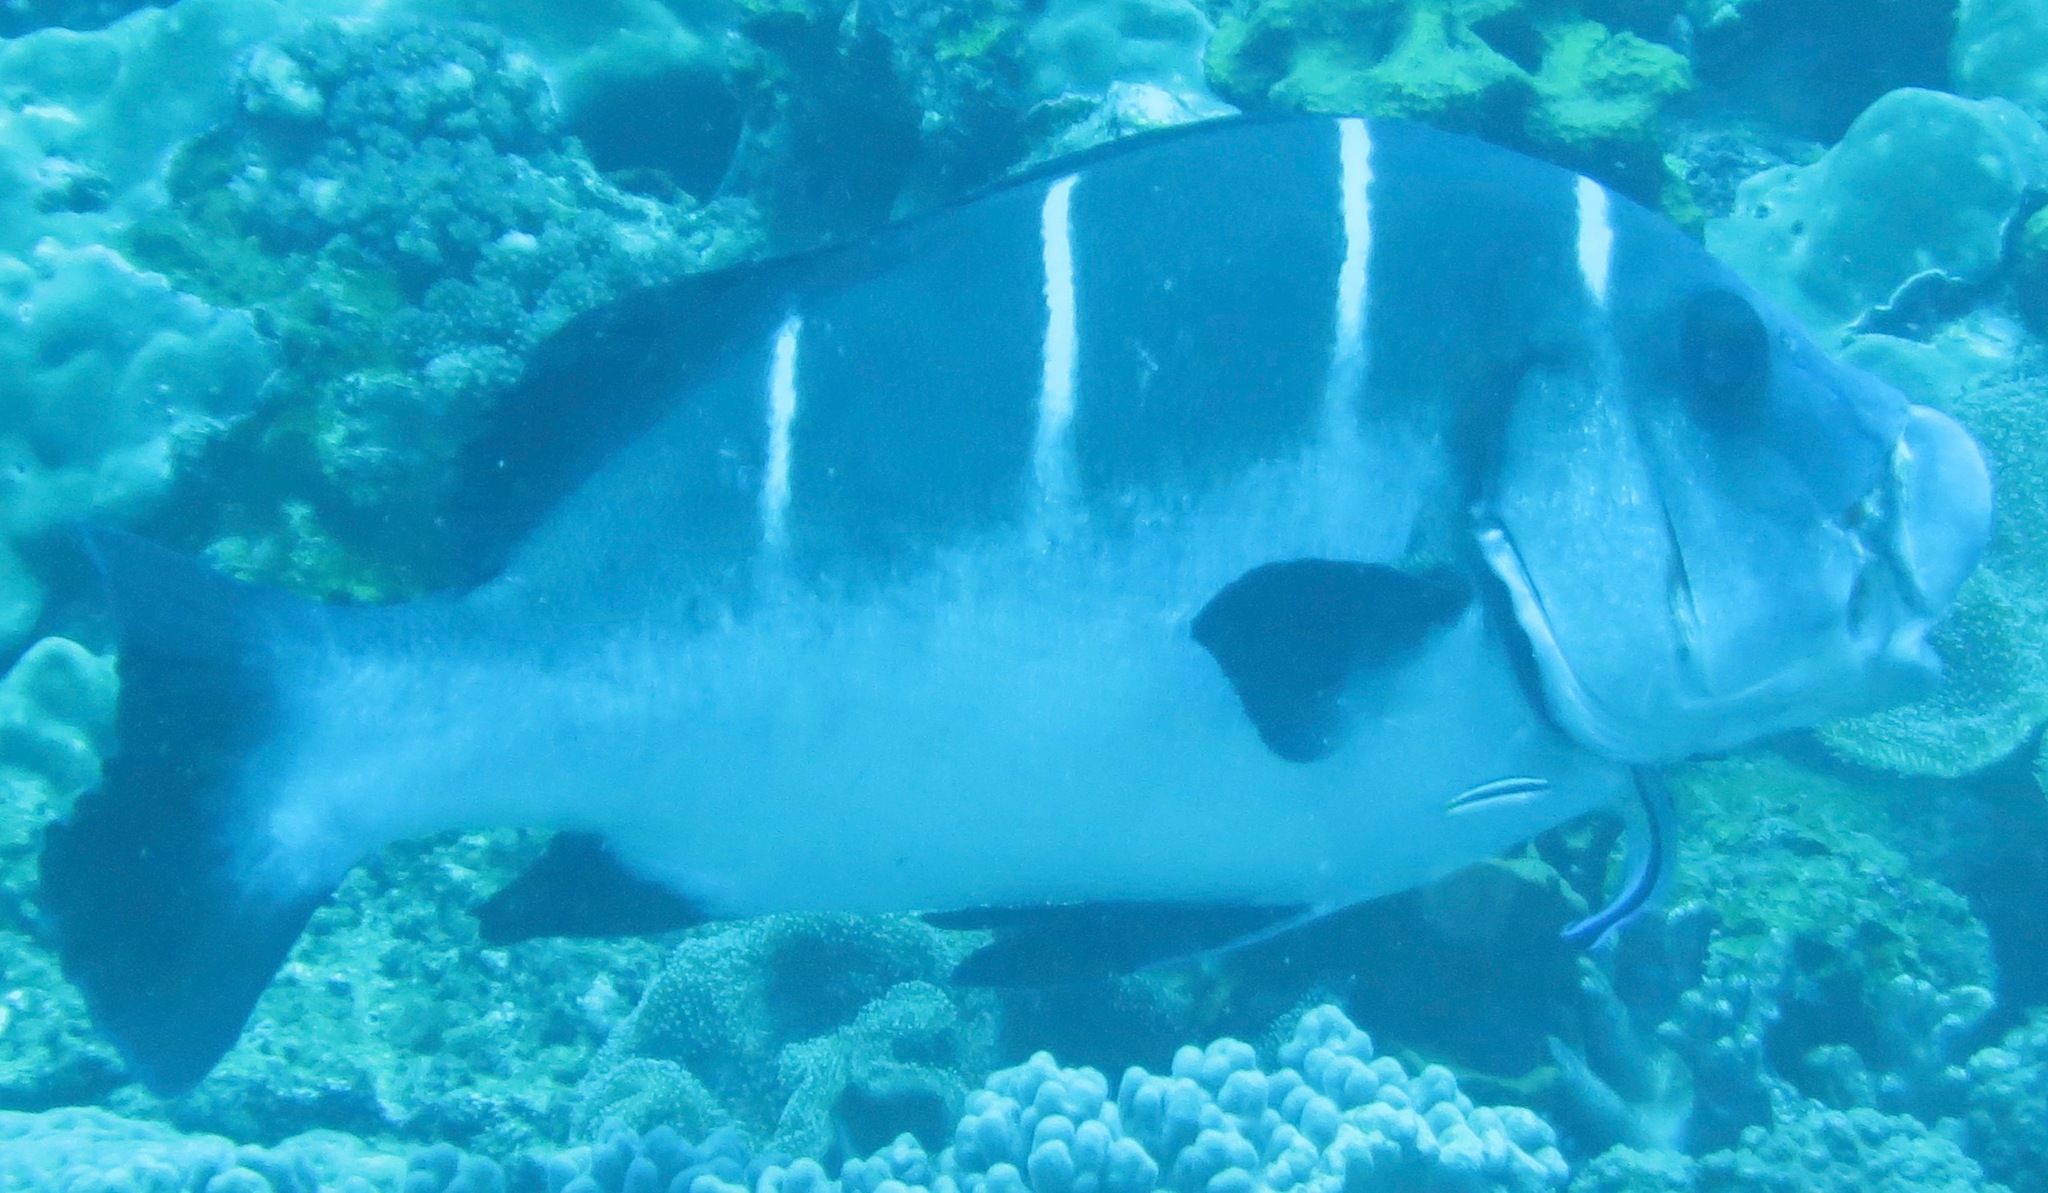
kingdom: Animalia
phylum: Chordata
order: Perciformes
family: Haemulidae
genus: Plectorhinchus
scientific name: Plectorhinchus playfairi
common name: Whitebarred rubberlip
